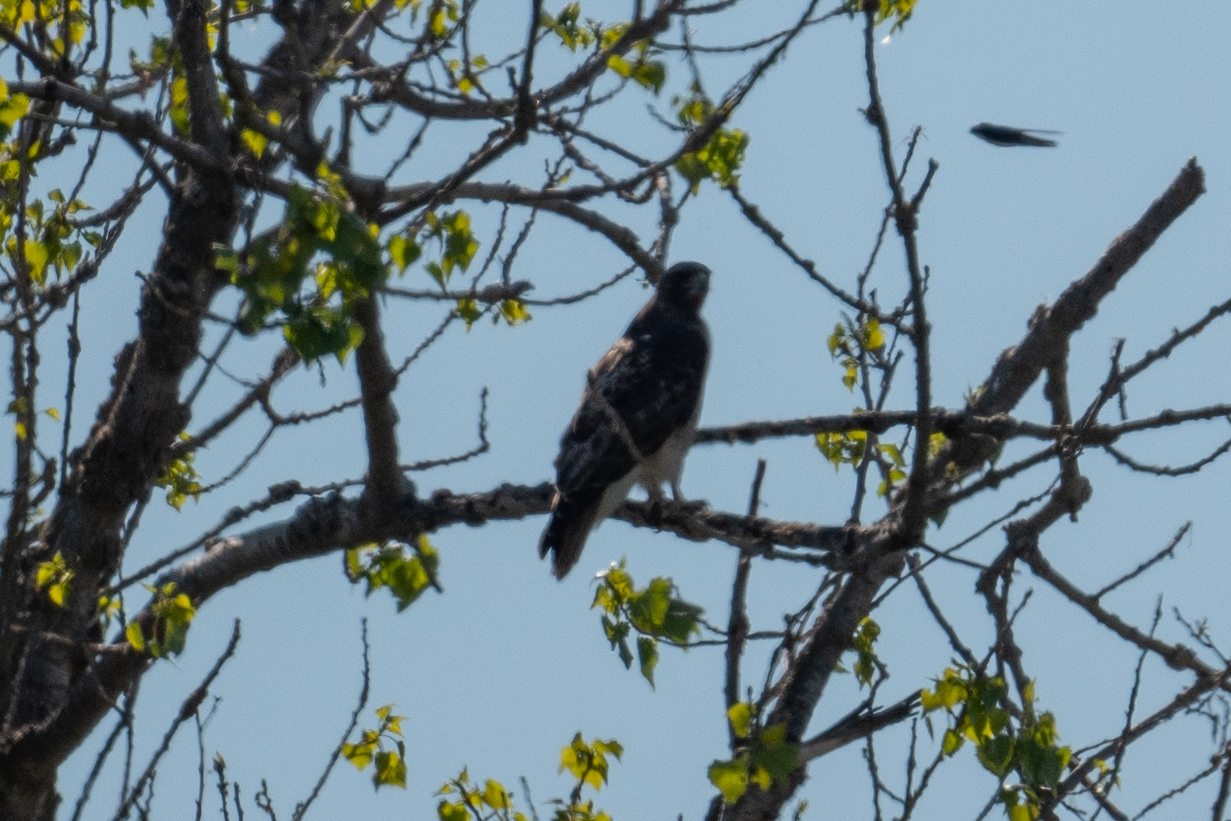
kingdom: Animalia
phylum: Chordata
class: Aves
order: Accipitriformes
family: Accipitridae
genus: Buteo
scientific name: Buteo jamaicensis
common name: Red-tailed hawk
